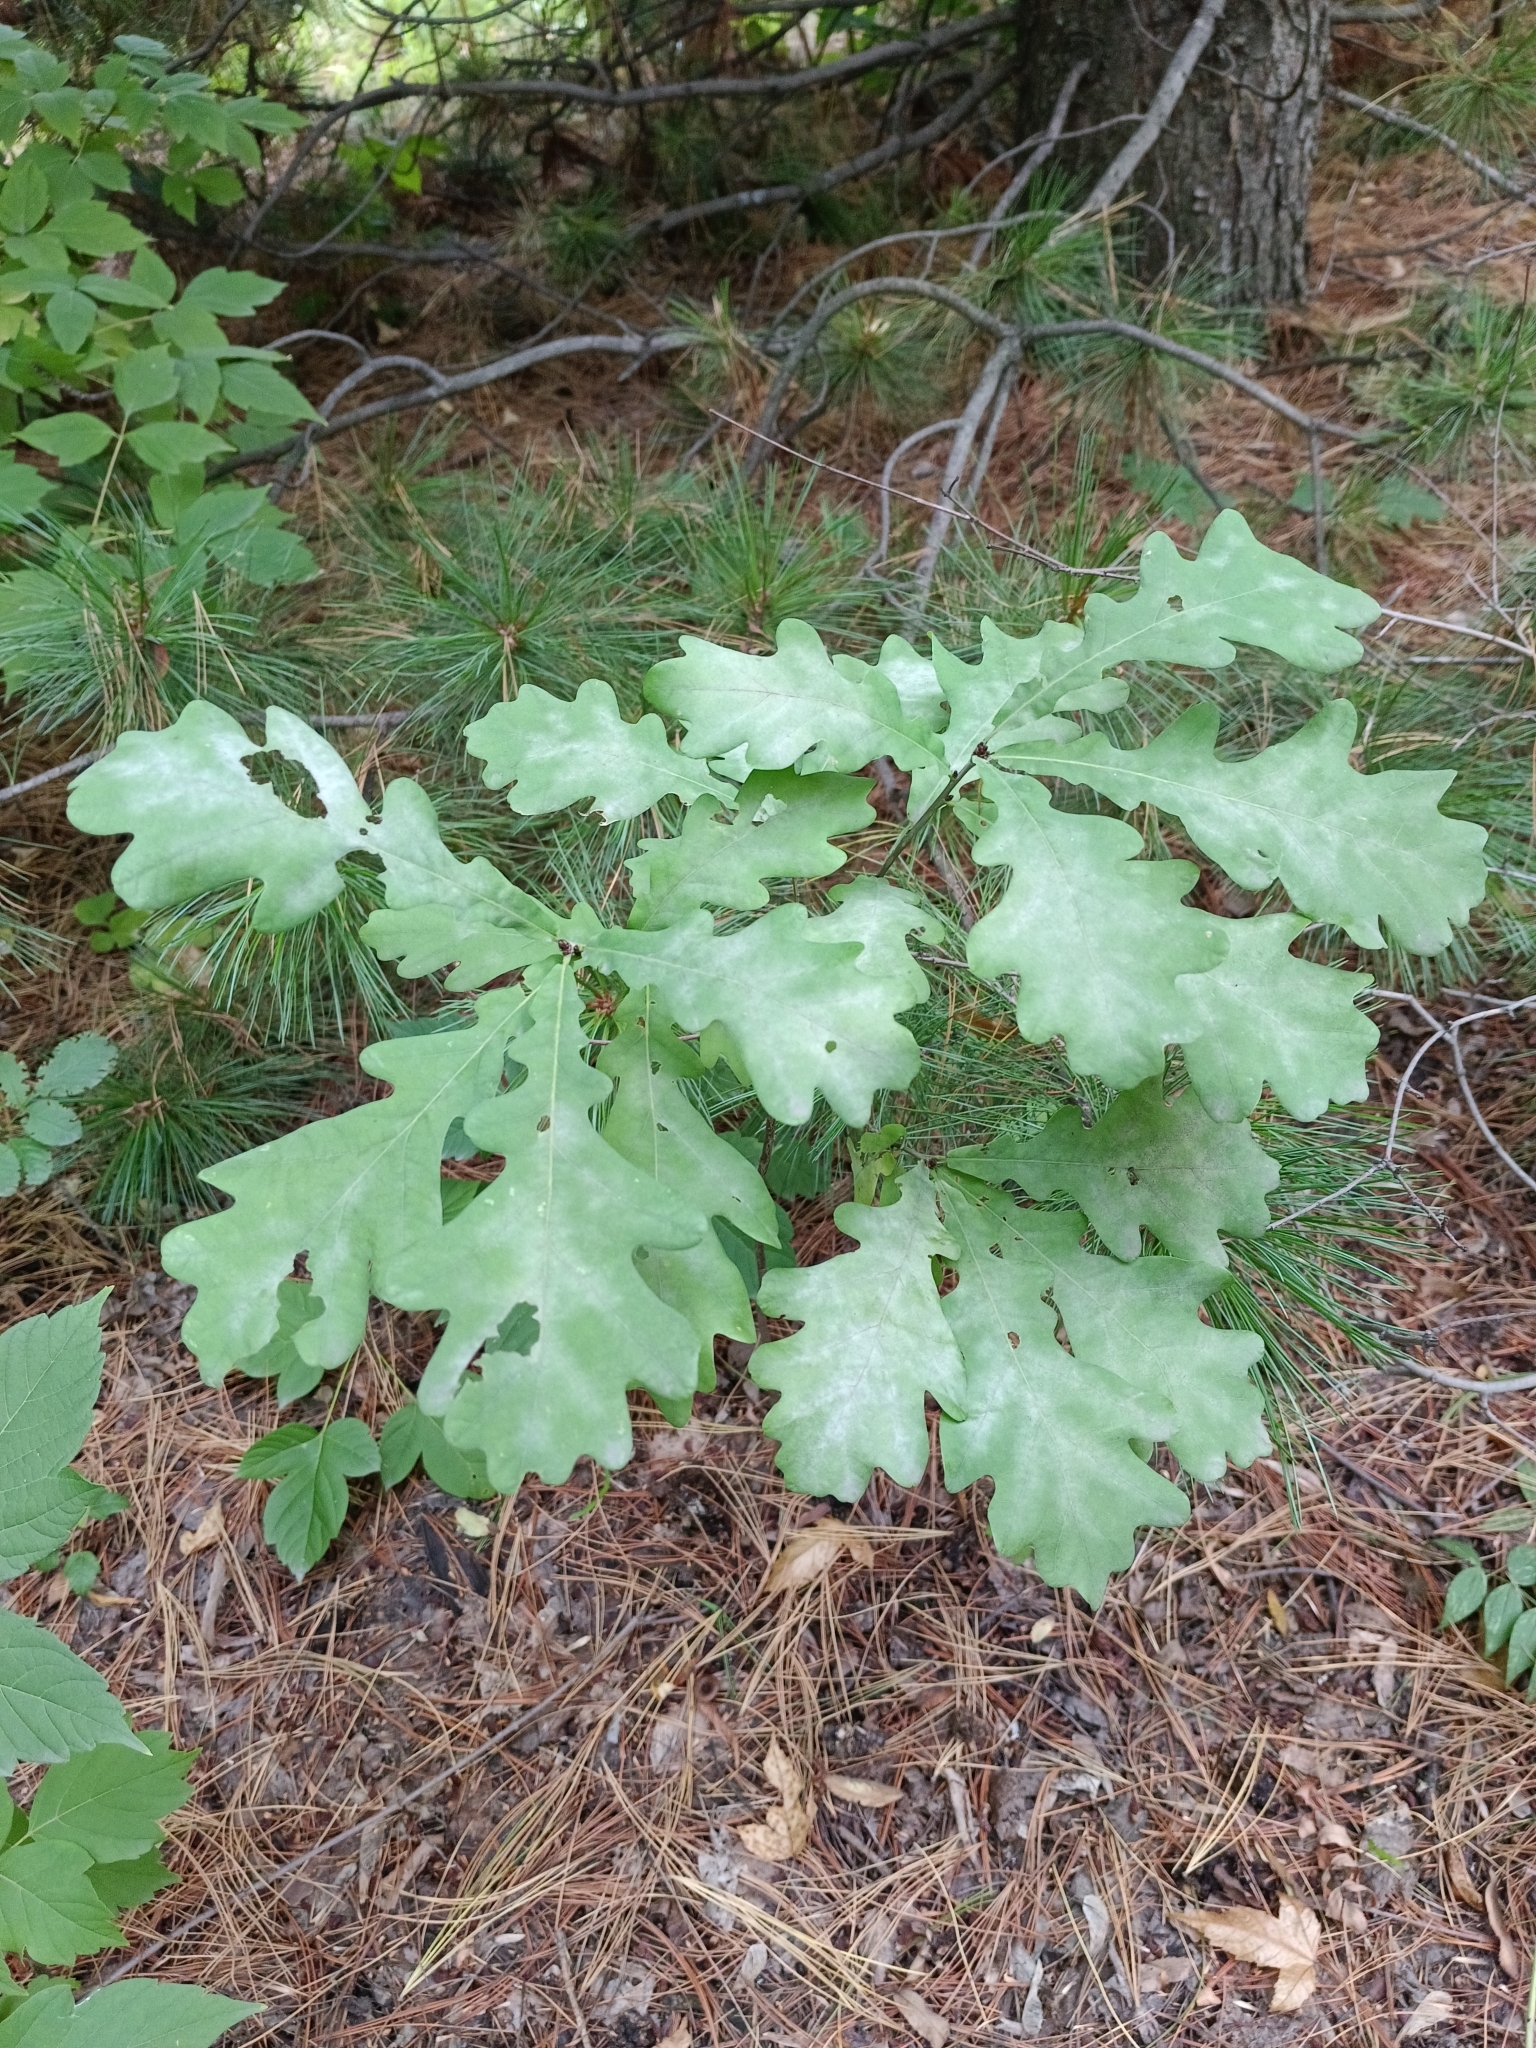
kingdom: Plantae
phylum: Tracheophyta
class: Magnoliopsida
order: Fagales
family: Fagaceae
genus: Quercus
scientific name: Quercus robur
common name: Pedunculate oak
